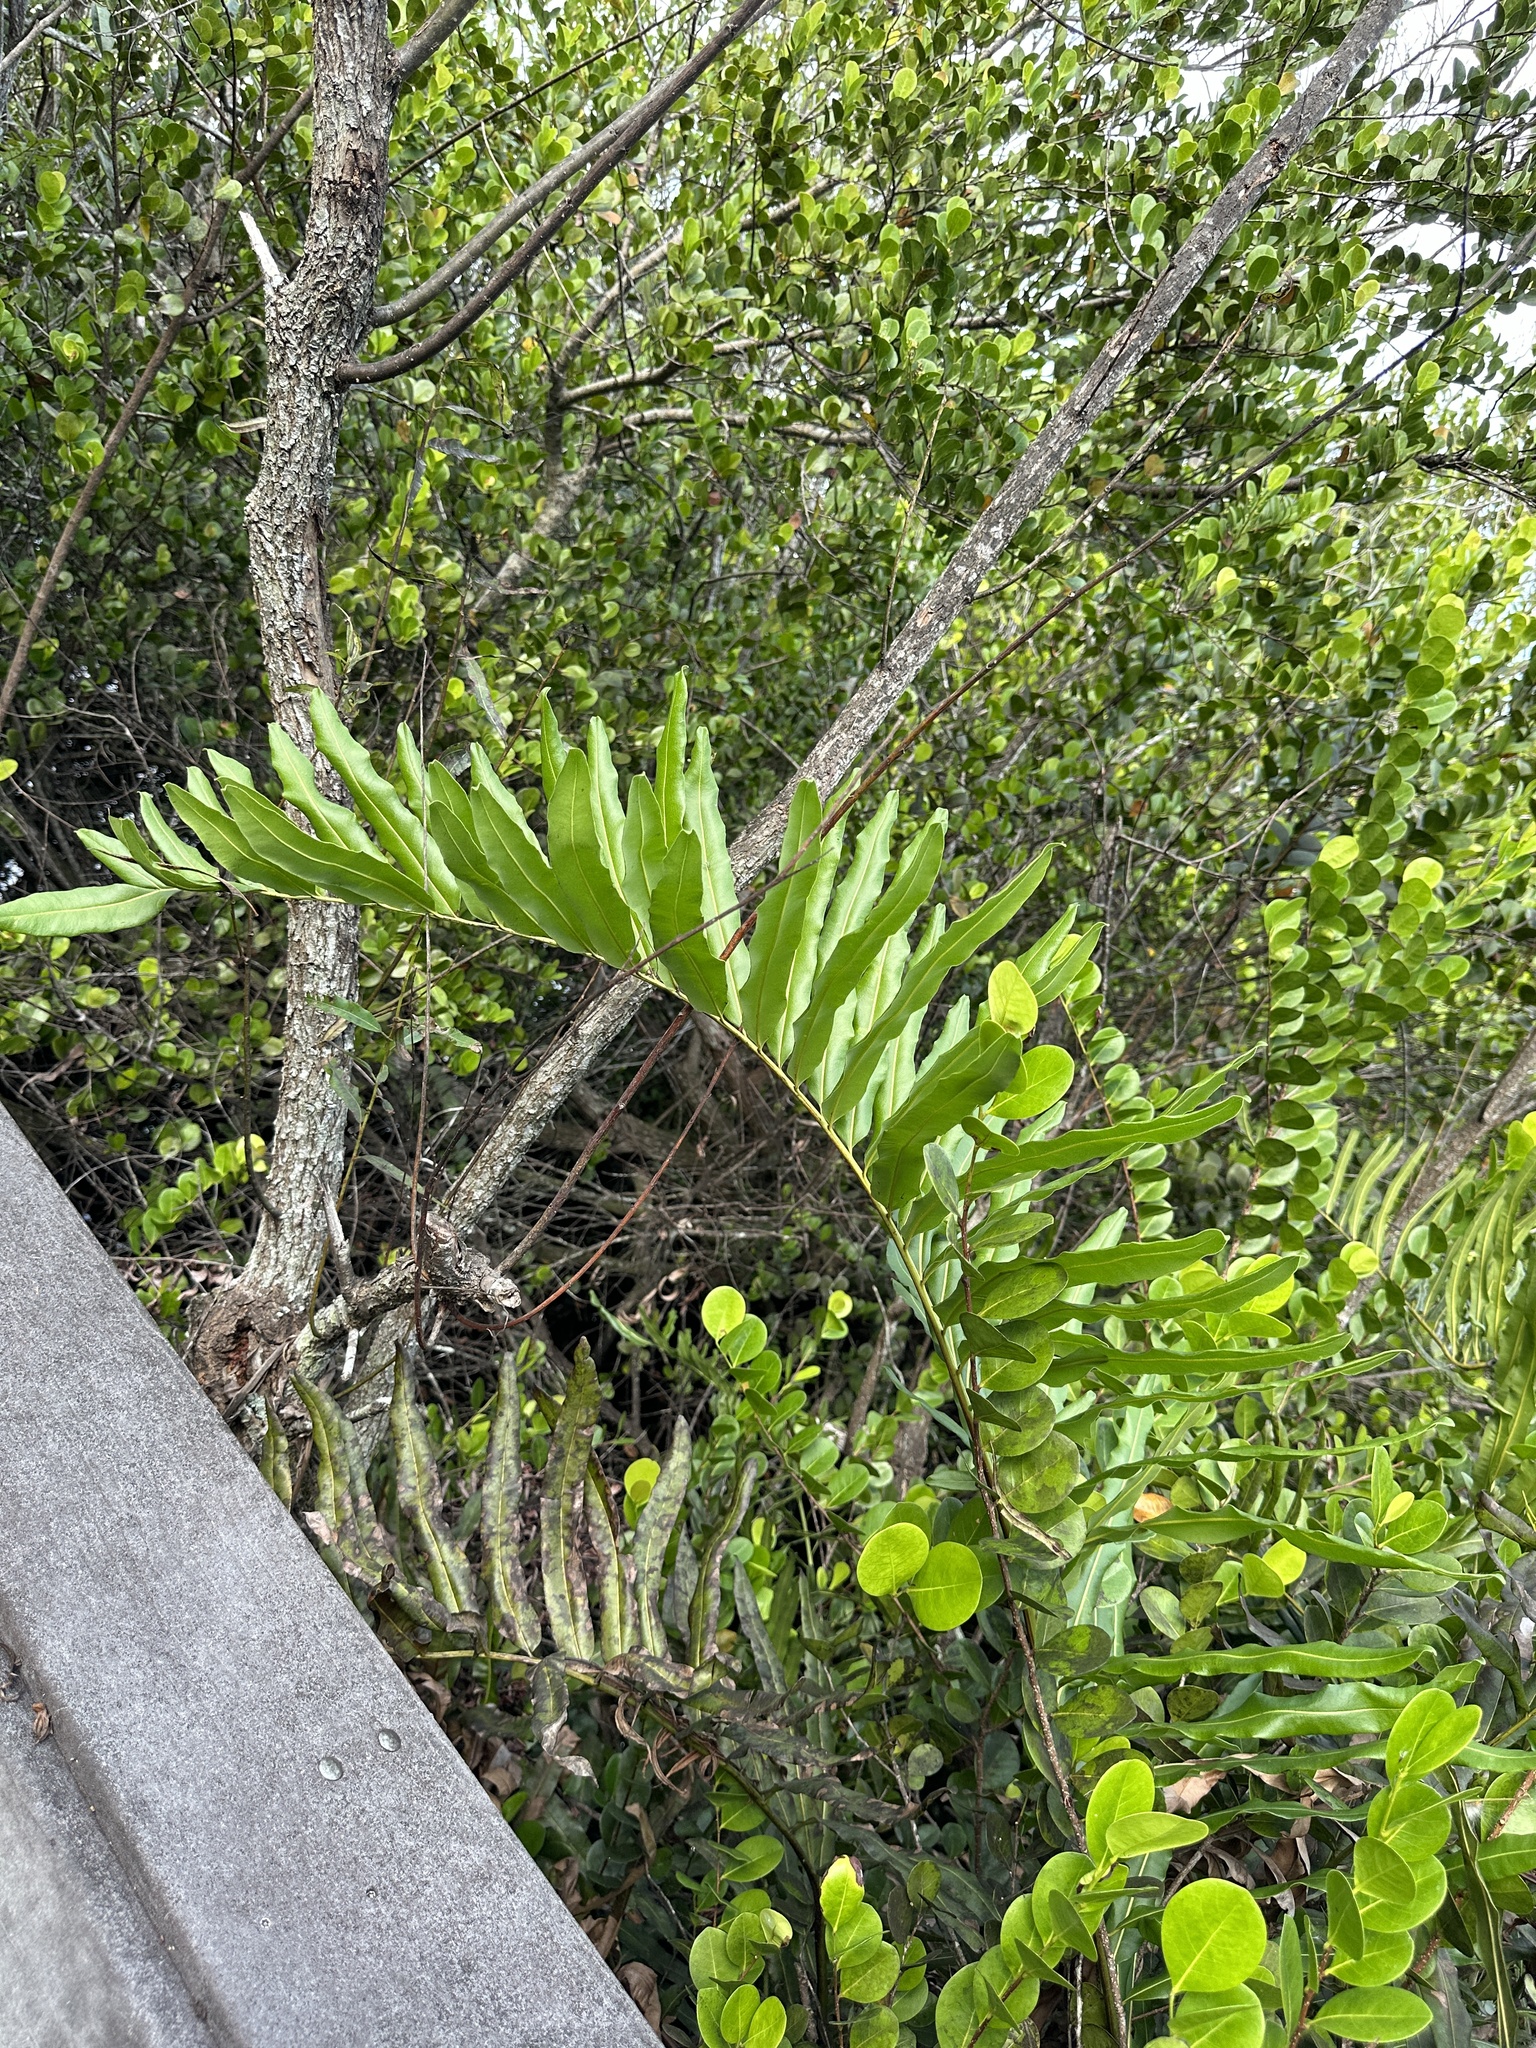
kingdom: Plantae
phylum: Tracheophyta
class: Polypodiopsida
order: Polypodiales
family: Pteridaceae
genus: Acrostichum
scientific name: Acrostichum danaeifolium
